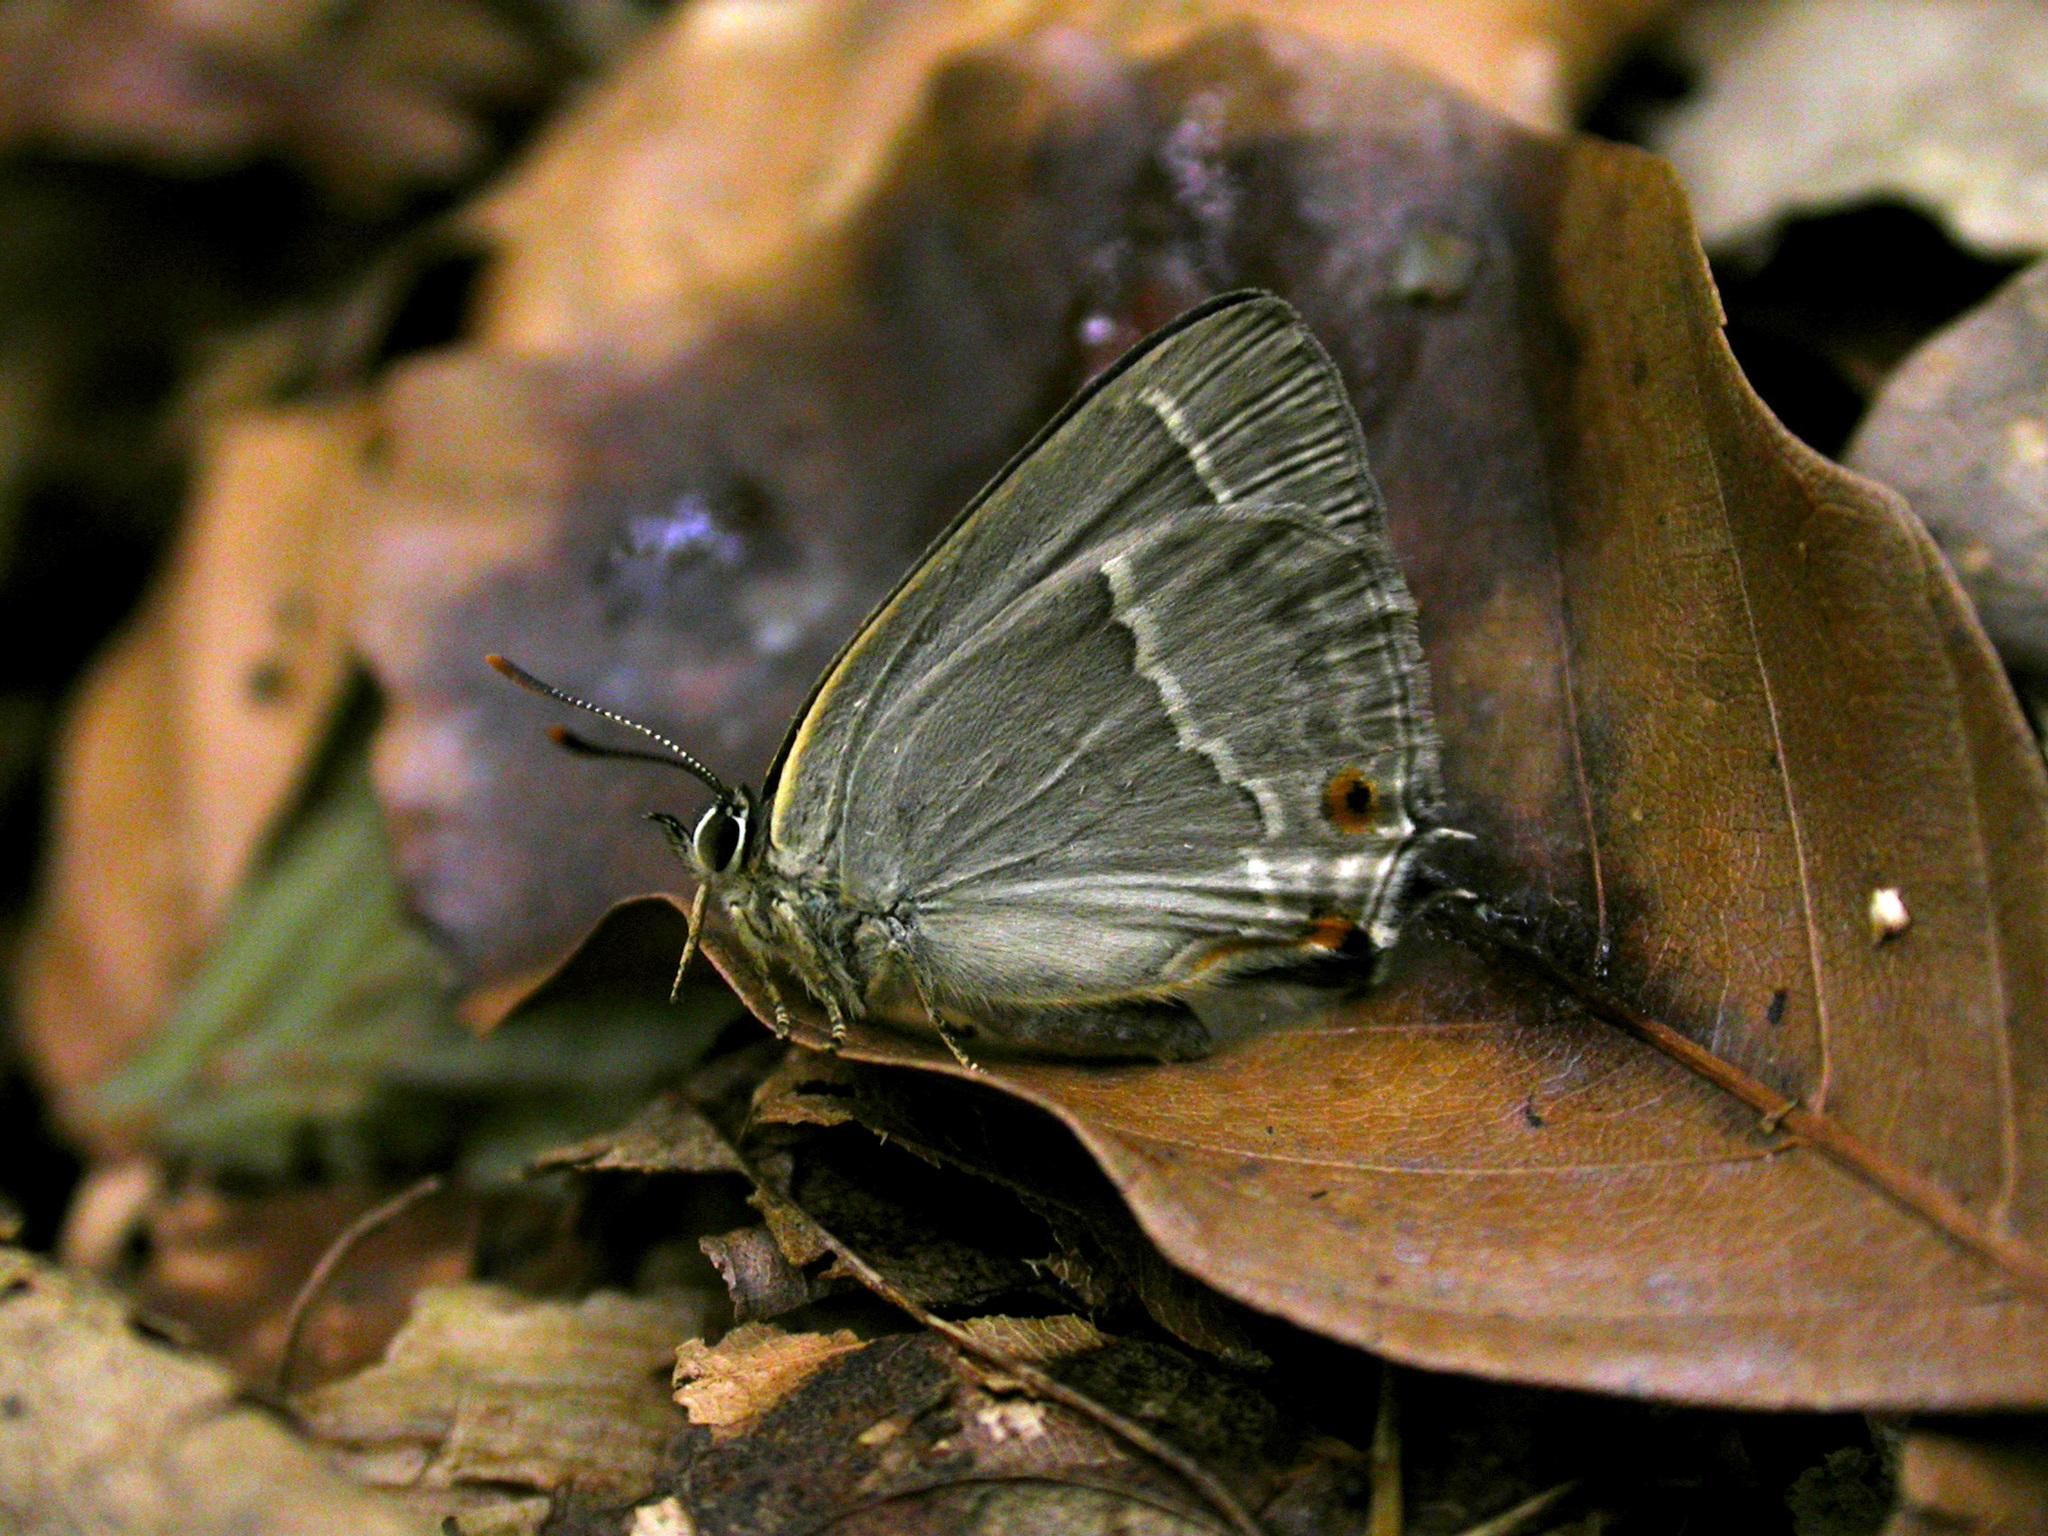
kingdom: Animalia
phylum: Arthropoda
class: Insecta
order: Lepidoptera
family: Lycaenidae
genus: Quercusia
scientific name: Quercusia quercus
